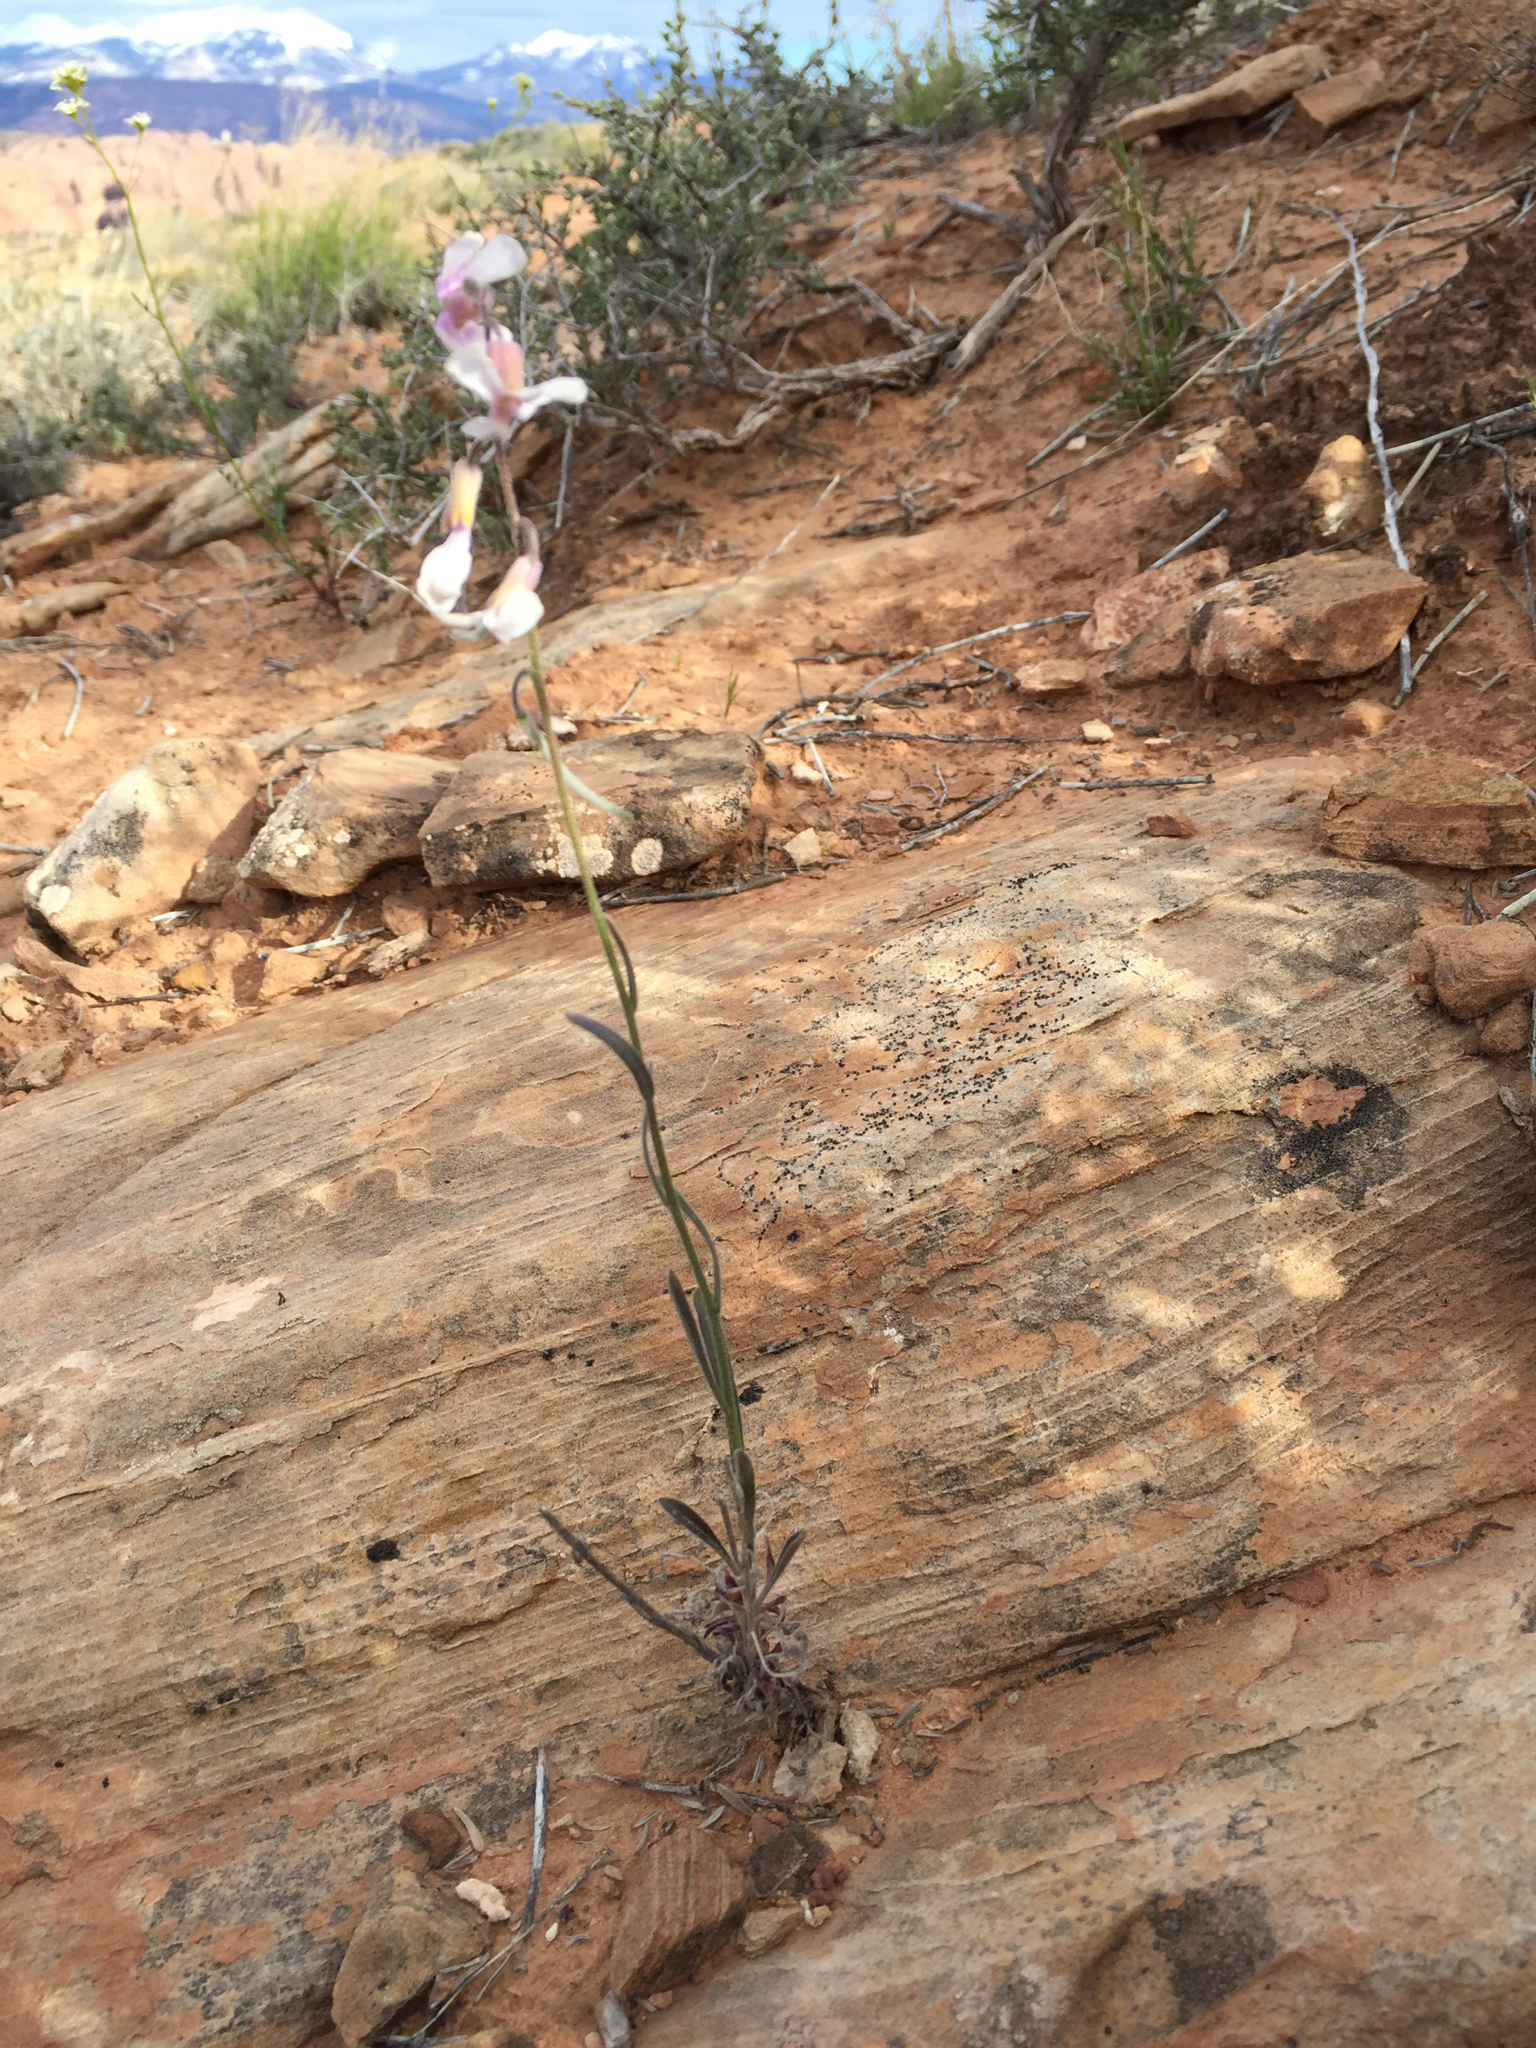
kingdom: Plantae
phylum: Tracheophyta
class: Magnoliopsida
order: Brassicales
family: Brassicaceae
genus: Boechera
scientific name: Boechera formosa
